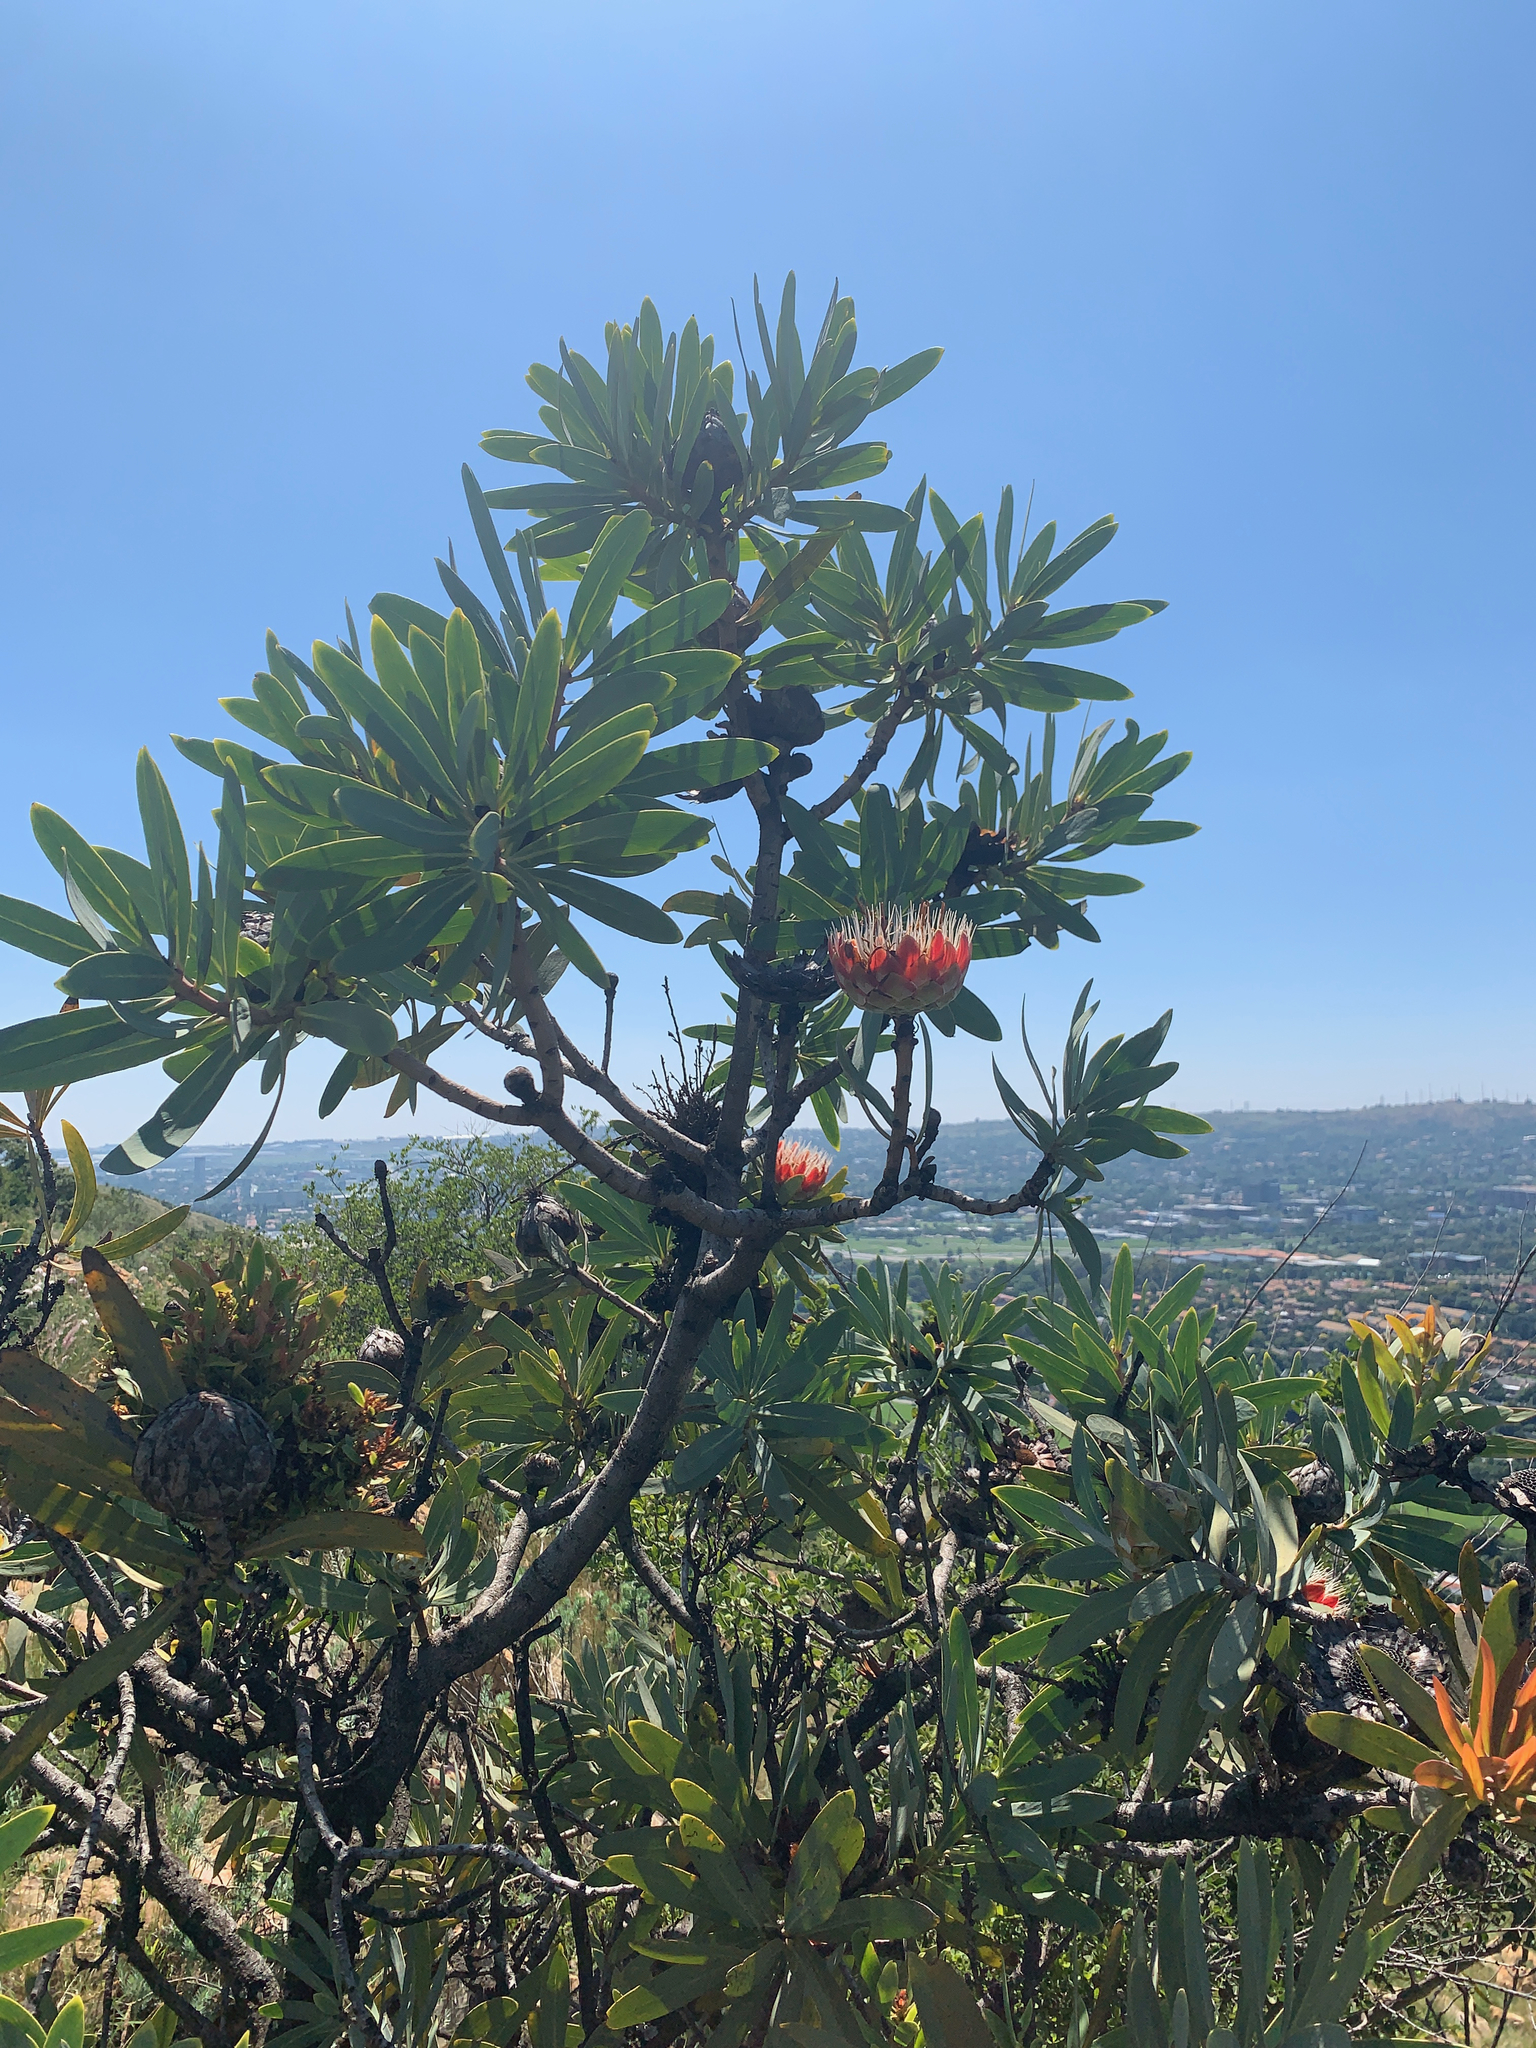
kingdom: Plantae
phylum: Tracheophyta
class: Magnoliopsida
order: Proteales
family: Proteaceae
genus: Protea
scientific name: Protea caffra
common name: Common sugarbush
